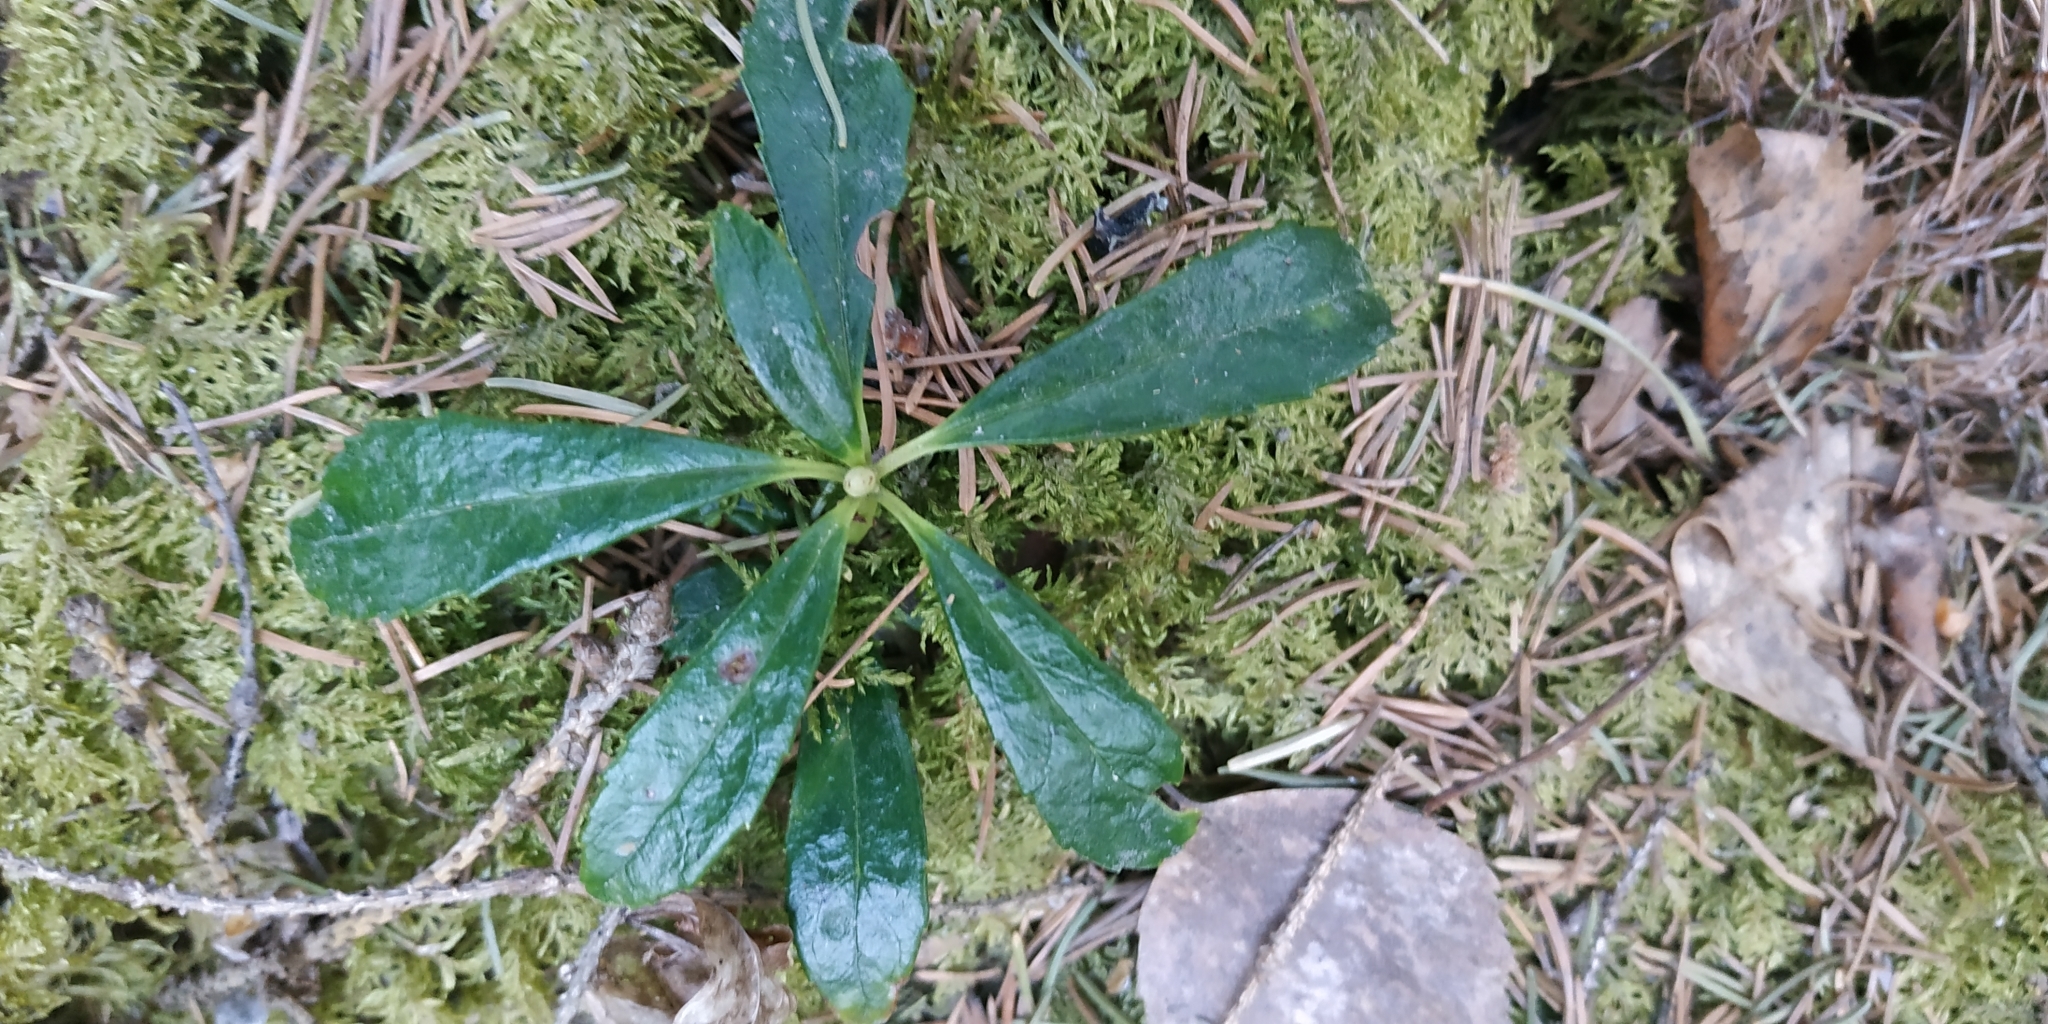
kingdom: Plantae
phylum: Tracheophyta
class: Magnoliopsida
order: Ericales
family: Ericaceae
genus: Chimaphila
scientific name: Chimaphila umbellata
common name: Pipsissewa
